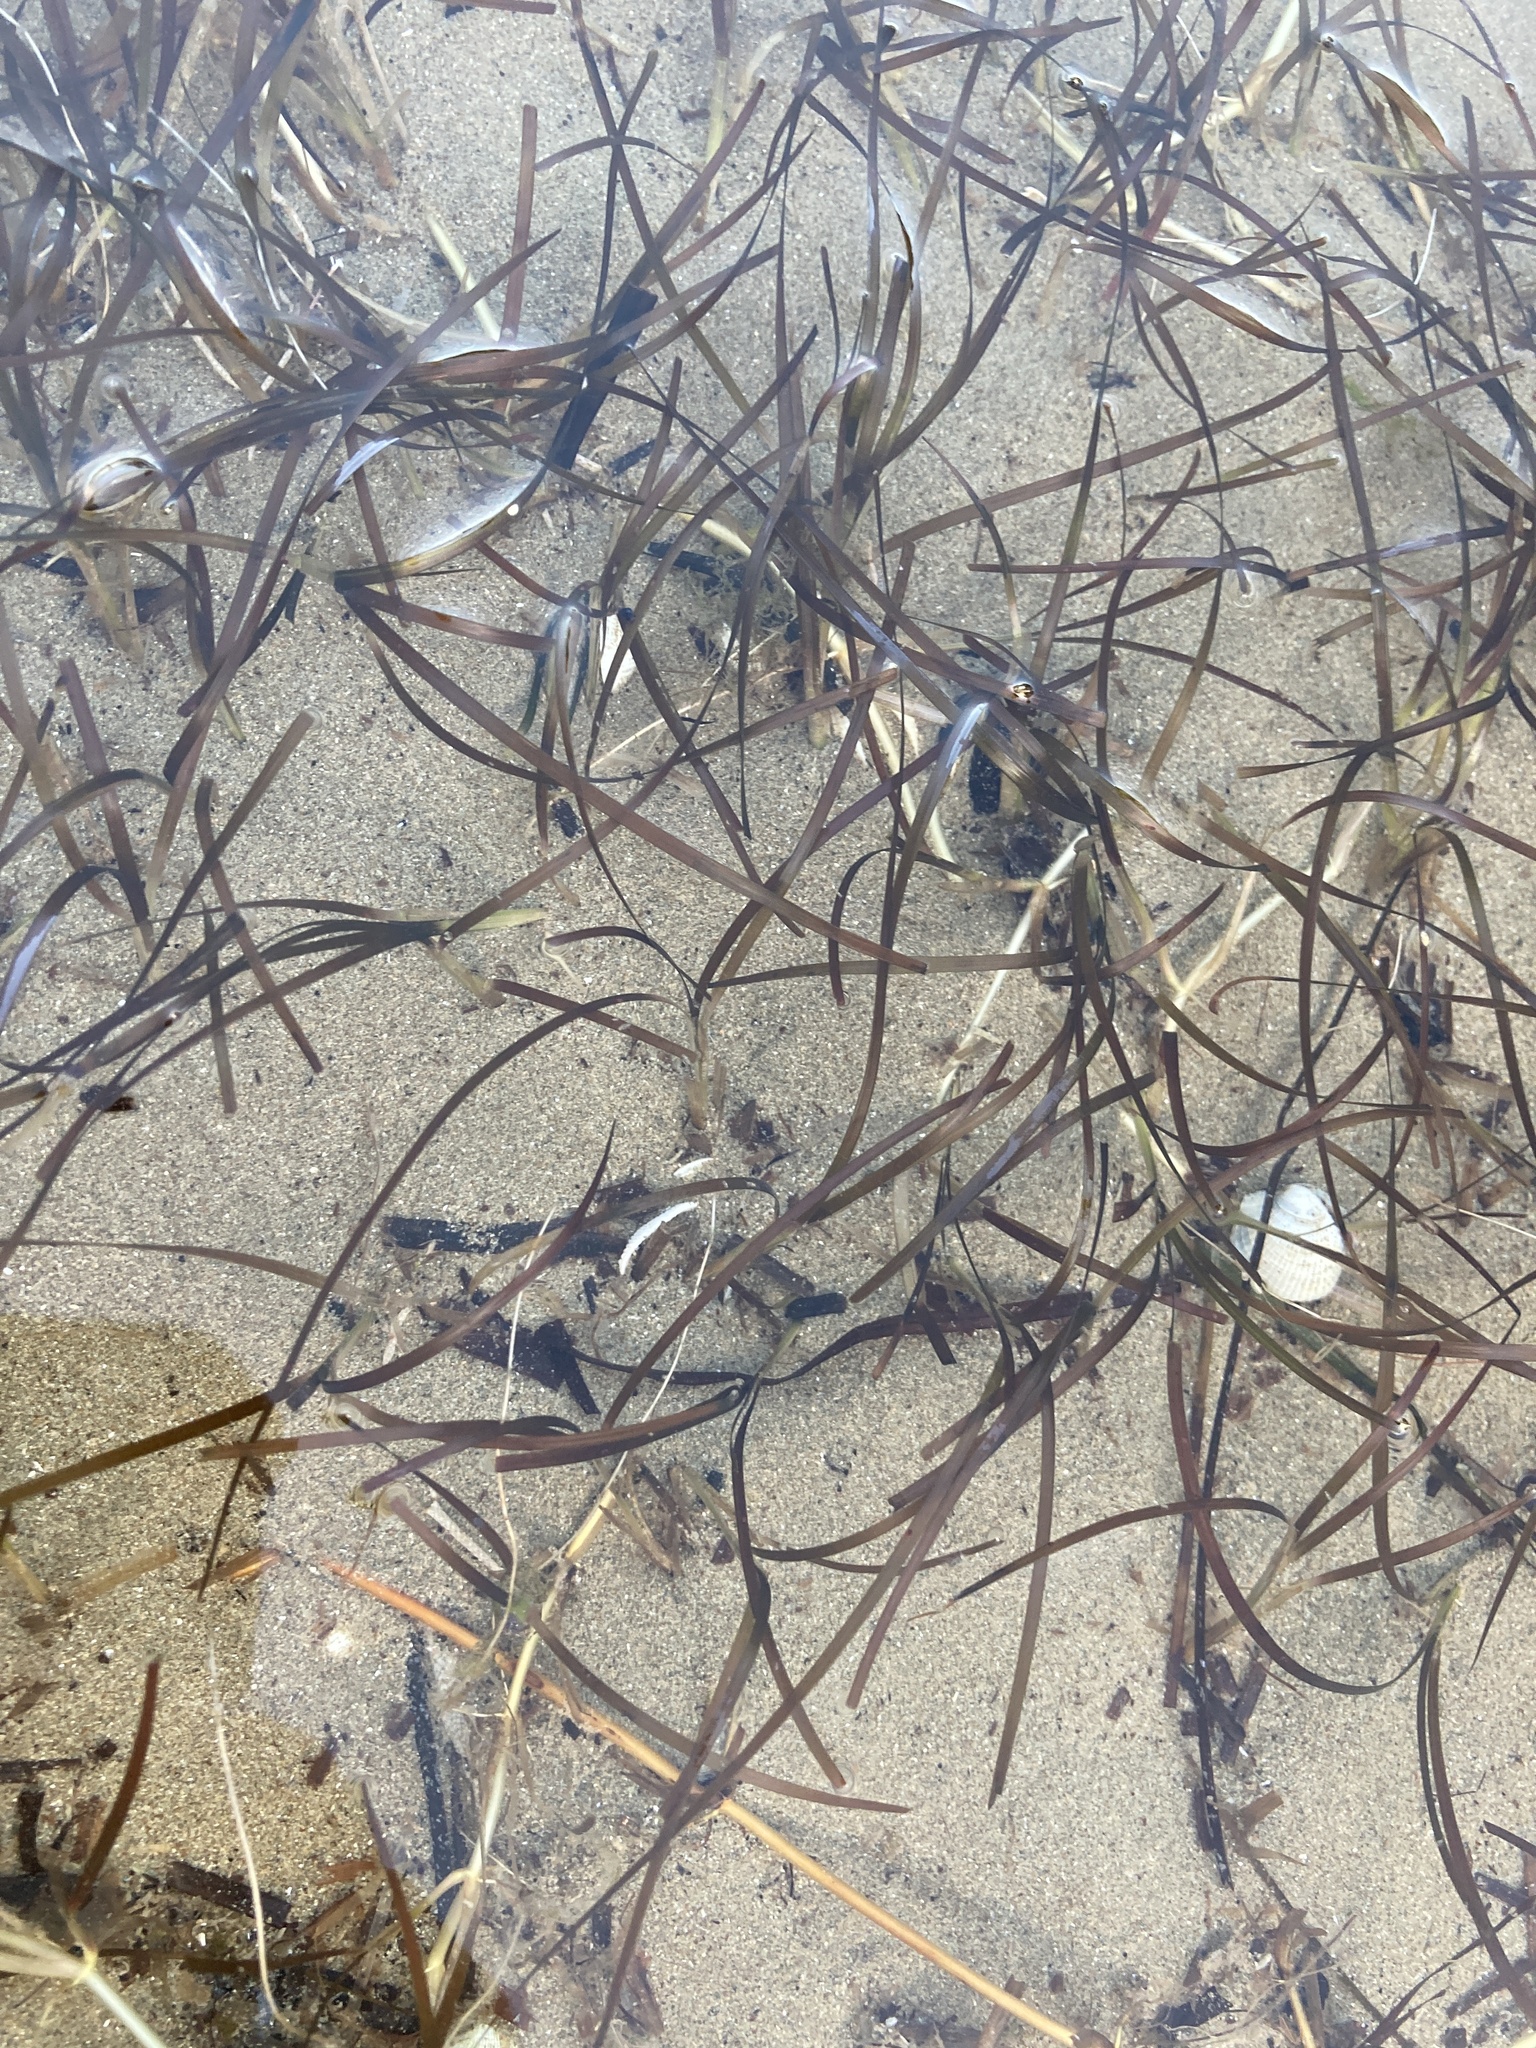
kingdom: Plantae
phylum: Tracheophyta
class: Liliopsida
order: Alismatales
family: Zosteraceae
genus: Zostera
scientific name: Zostera muelleri
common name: Species code: zc
